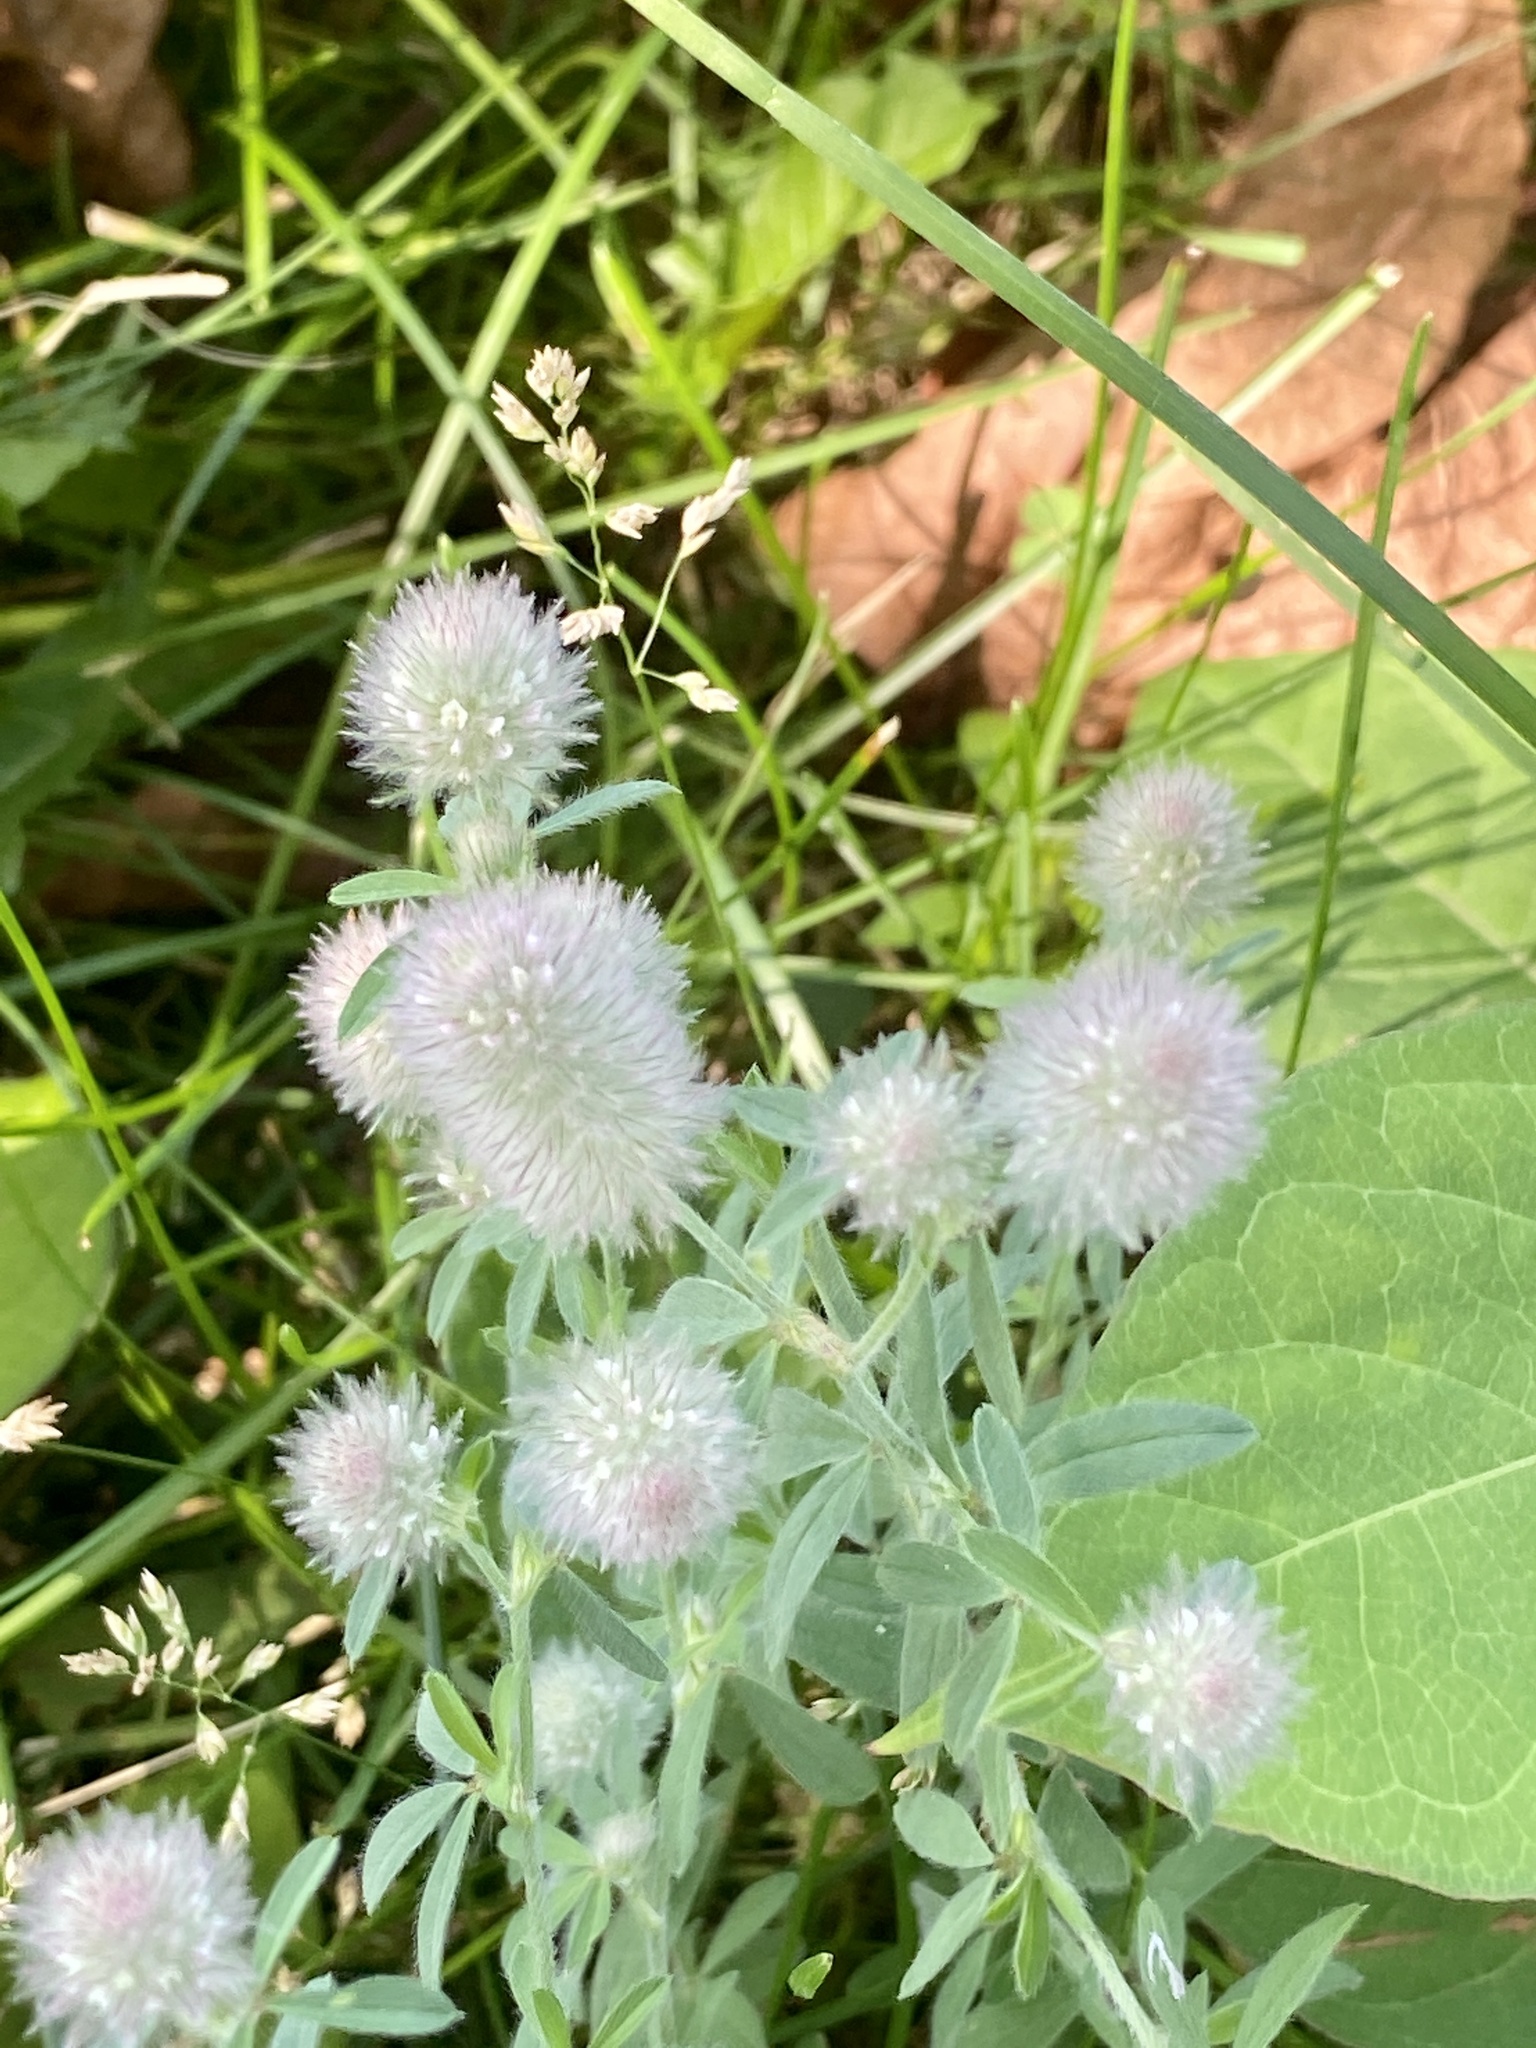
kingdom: Plantae
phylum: Tracheophyta
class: Magnoliopsida
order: Fabales
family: Fabaceae
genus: Trifolium
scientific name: Trifolium arvense
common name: Hare's-foot clover
